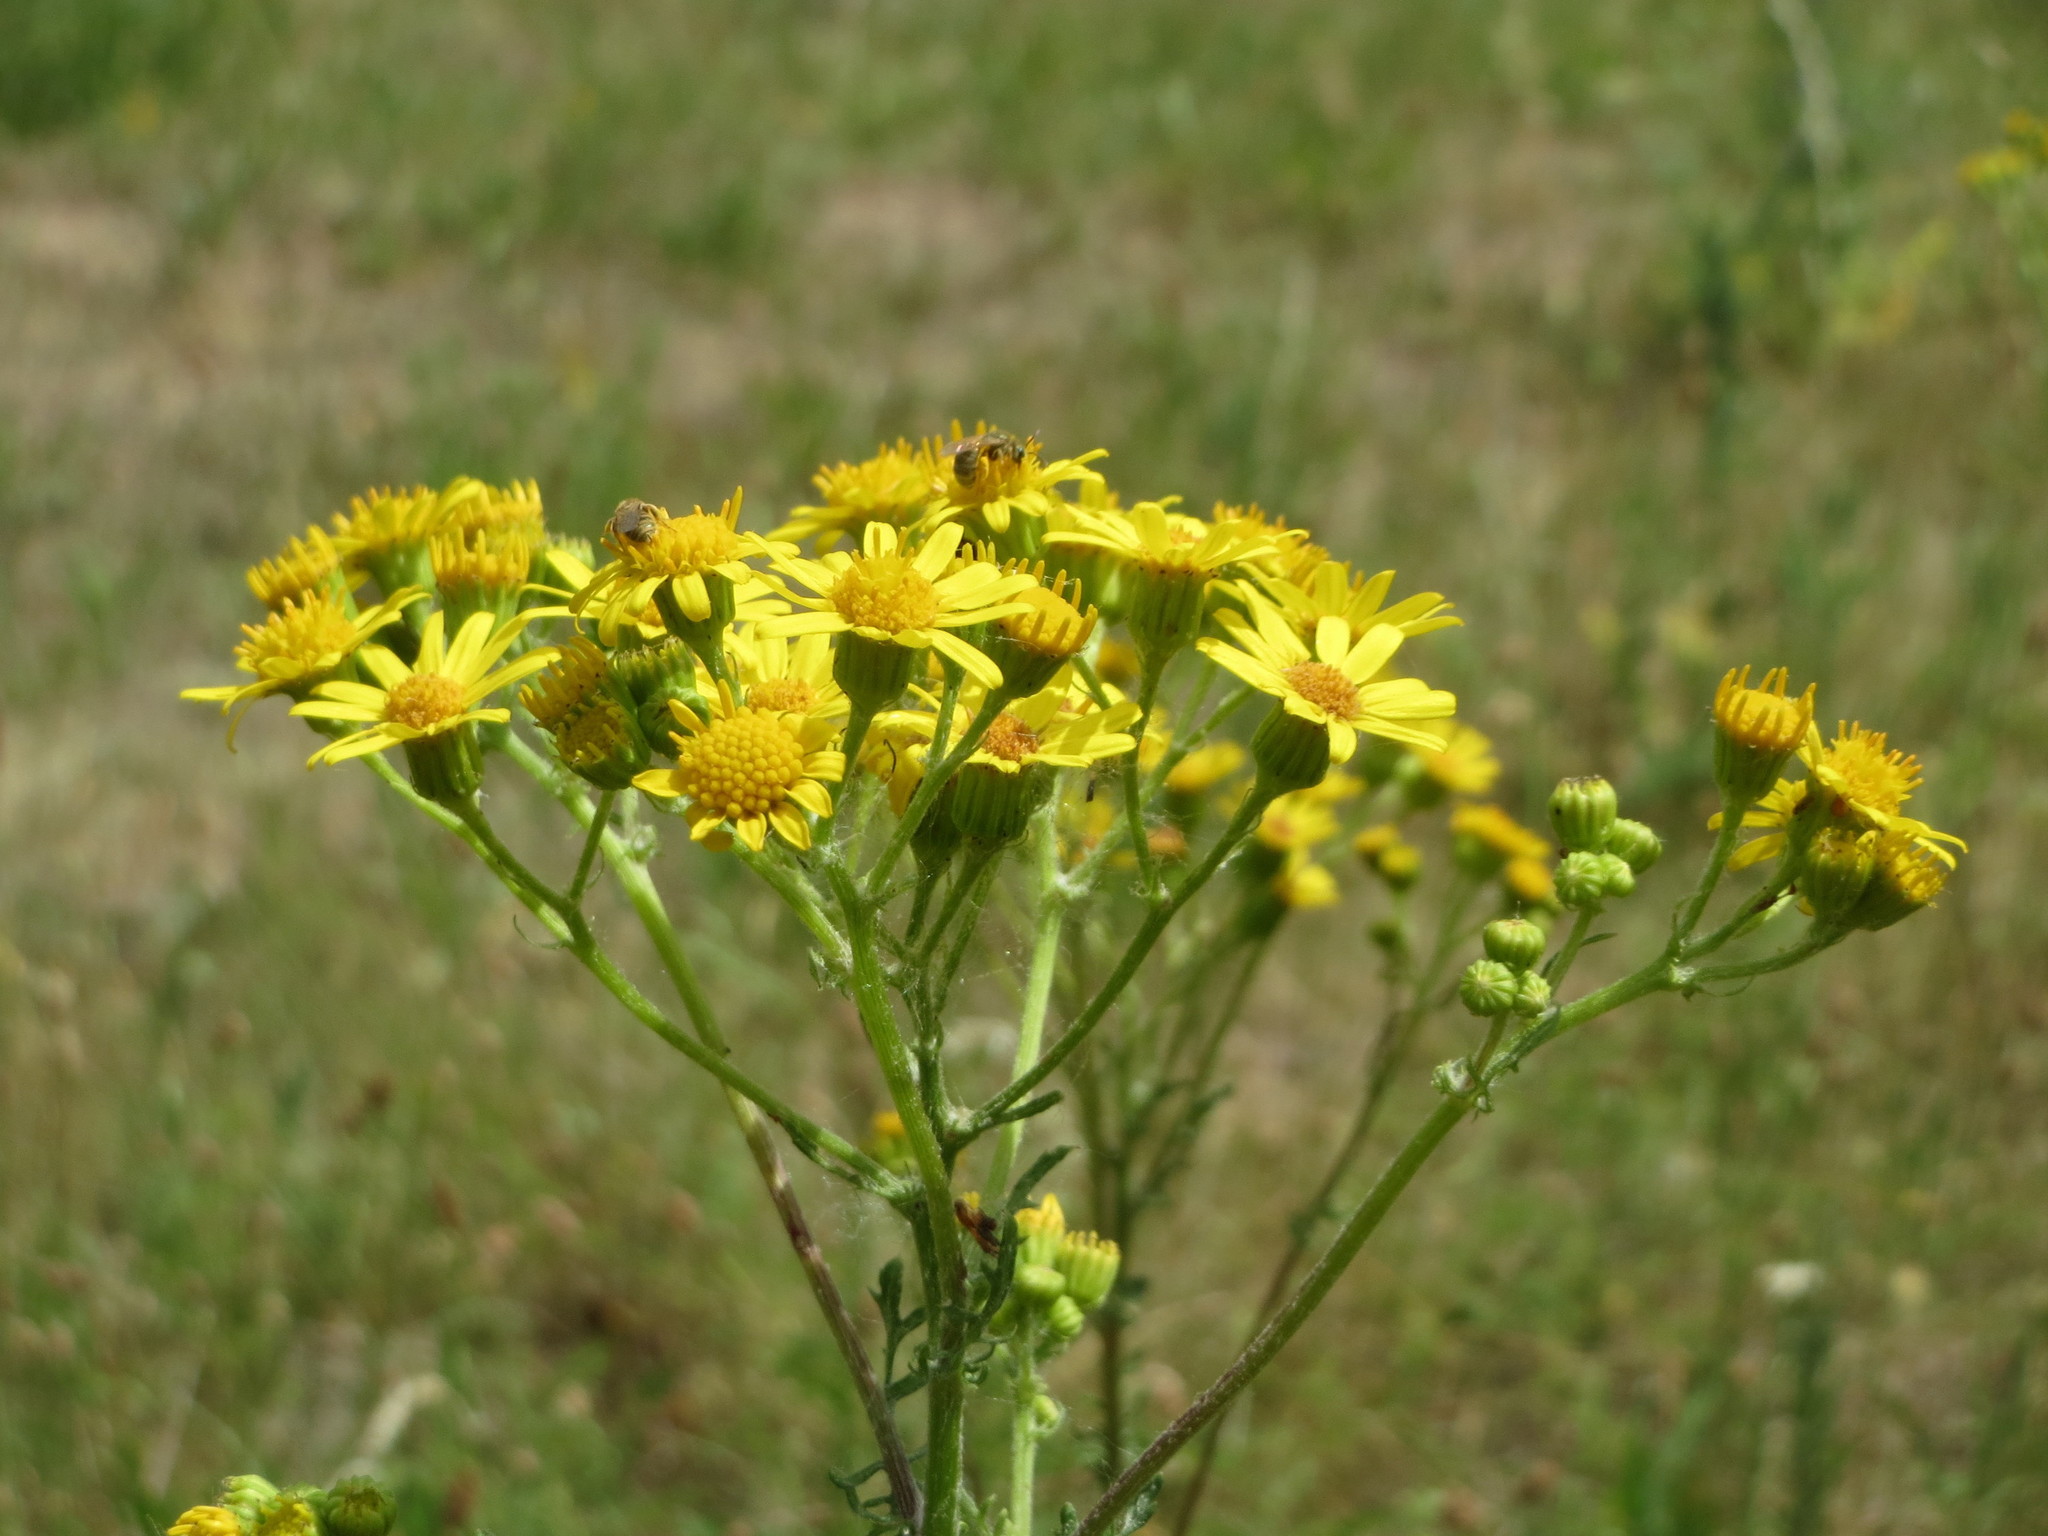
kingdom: Plantae
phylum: Tracheophyta
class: Magnoliopsida
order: Asterales
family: Asteraceae
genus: Jacobaea
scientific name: Jacobaea vulgaris
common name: Stinking willie
